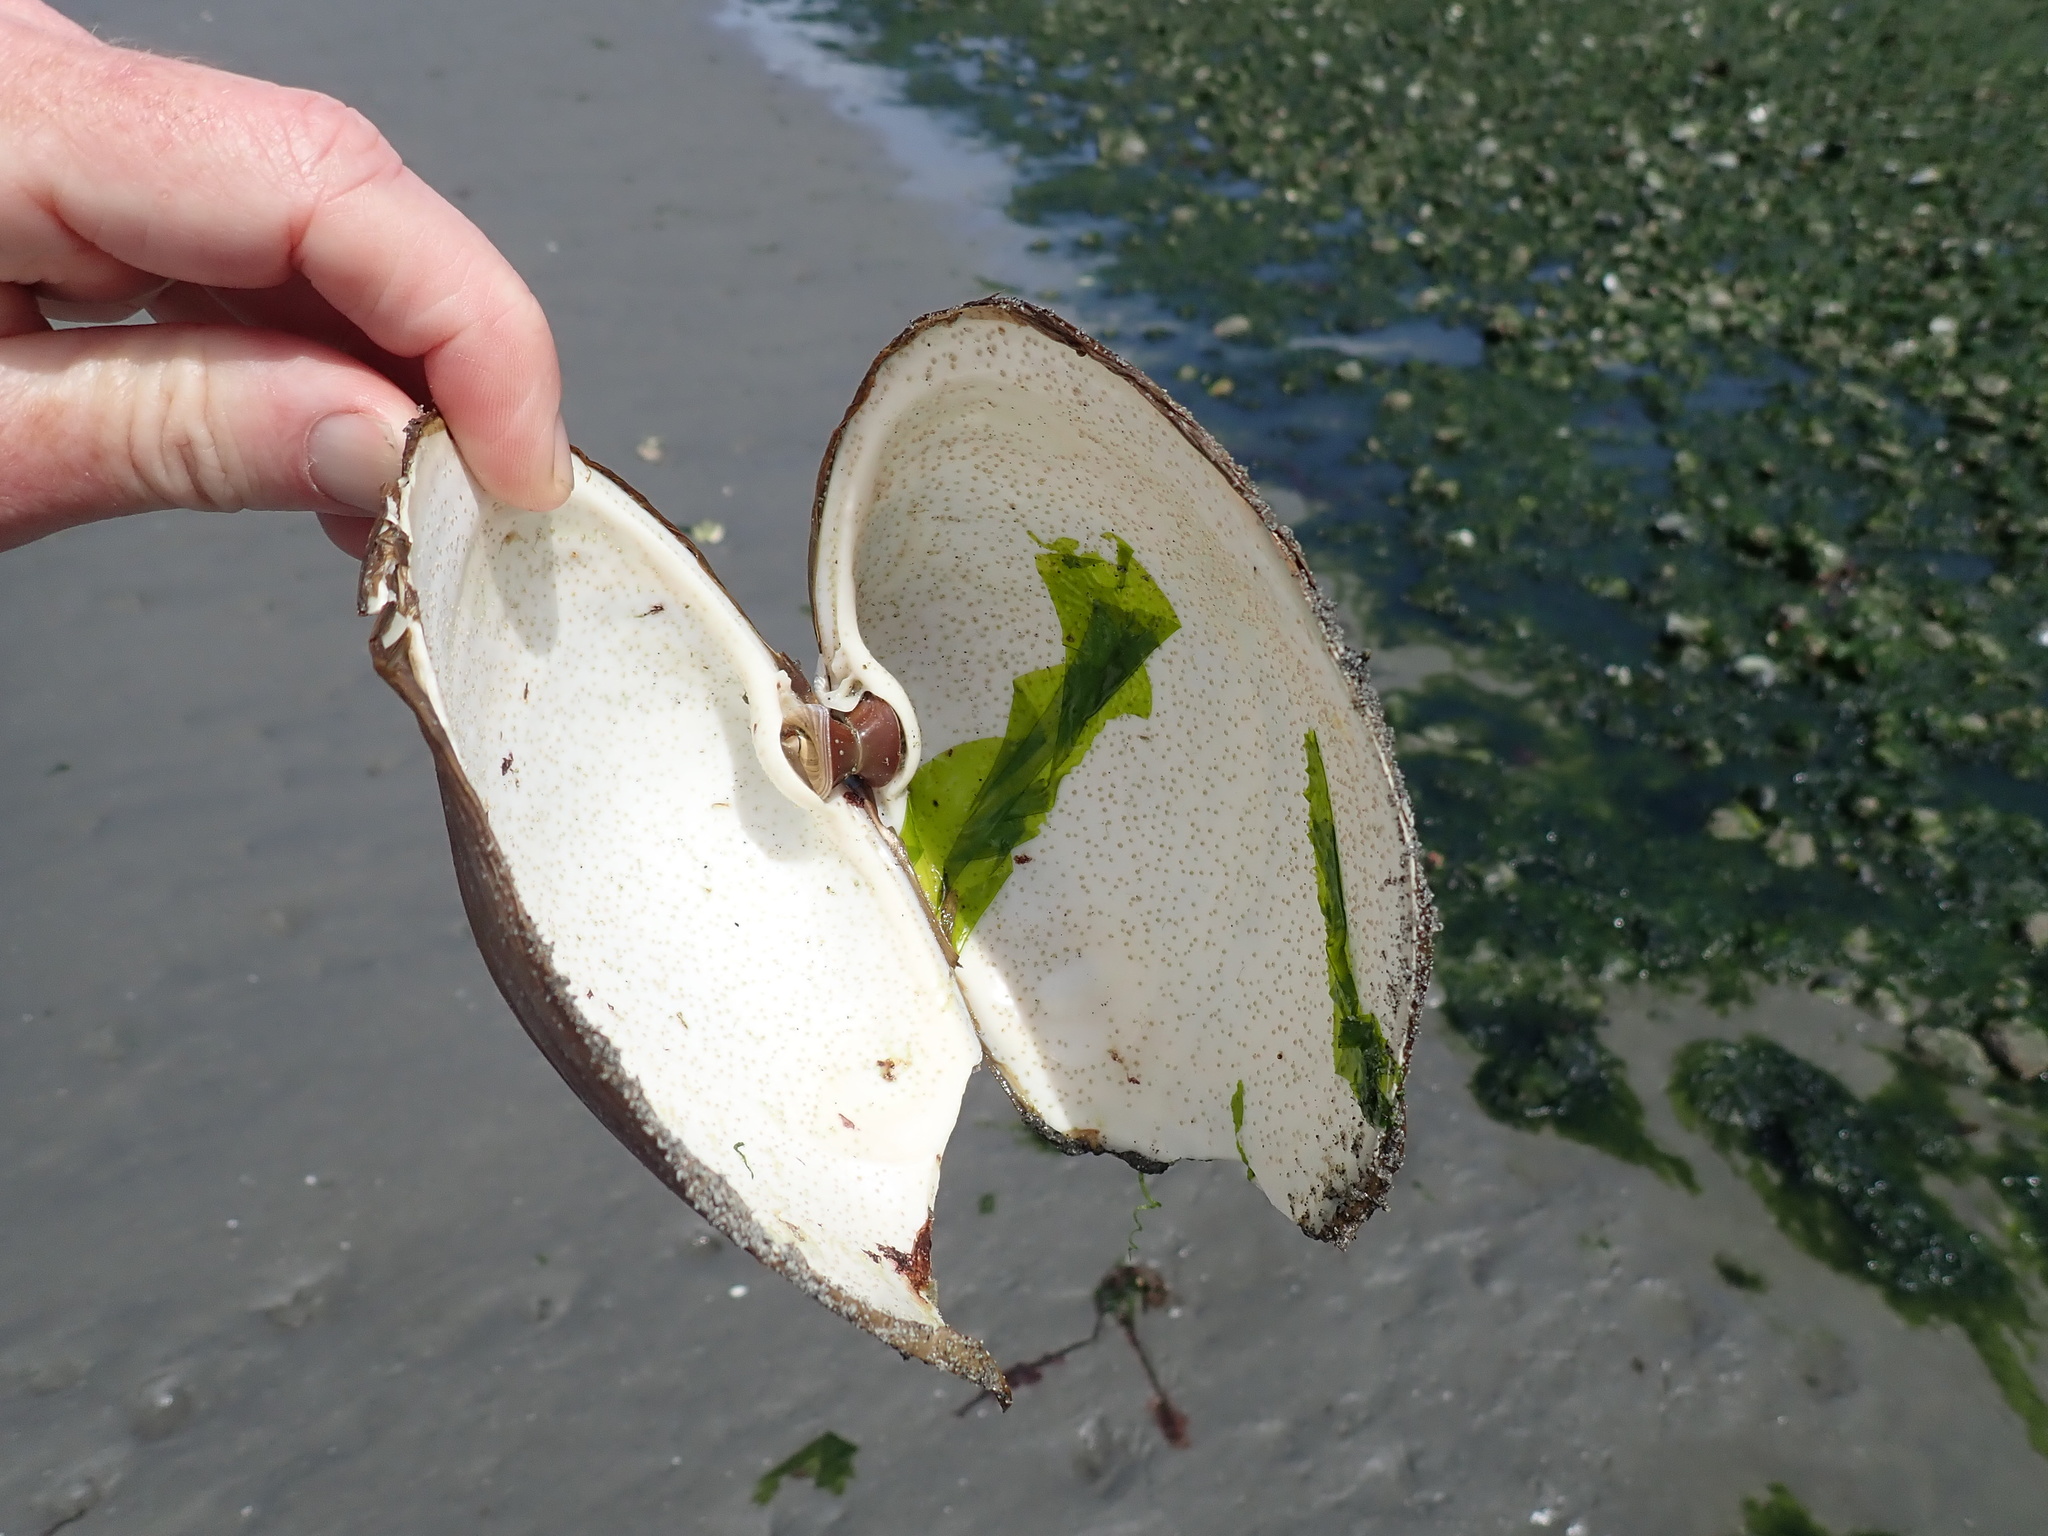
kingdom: Animalia
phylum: Mollusca
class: Bivalvia
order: Venerida
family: Mactridae
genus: Tresus
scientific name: Tresus capax
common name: Fat gaper
